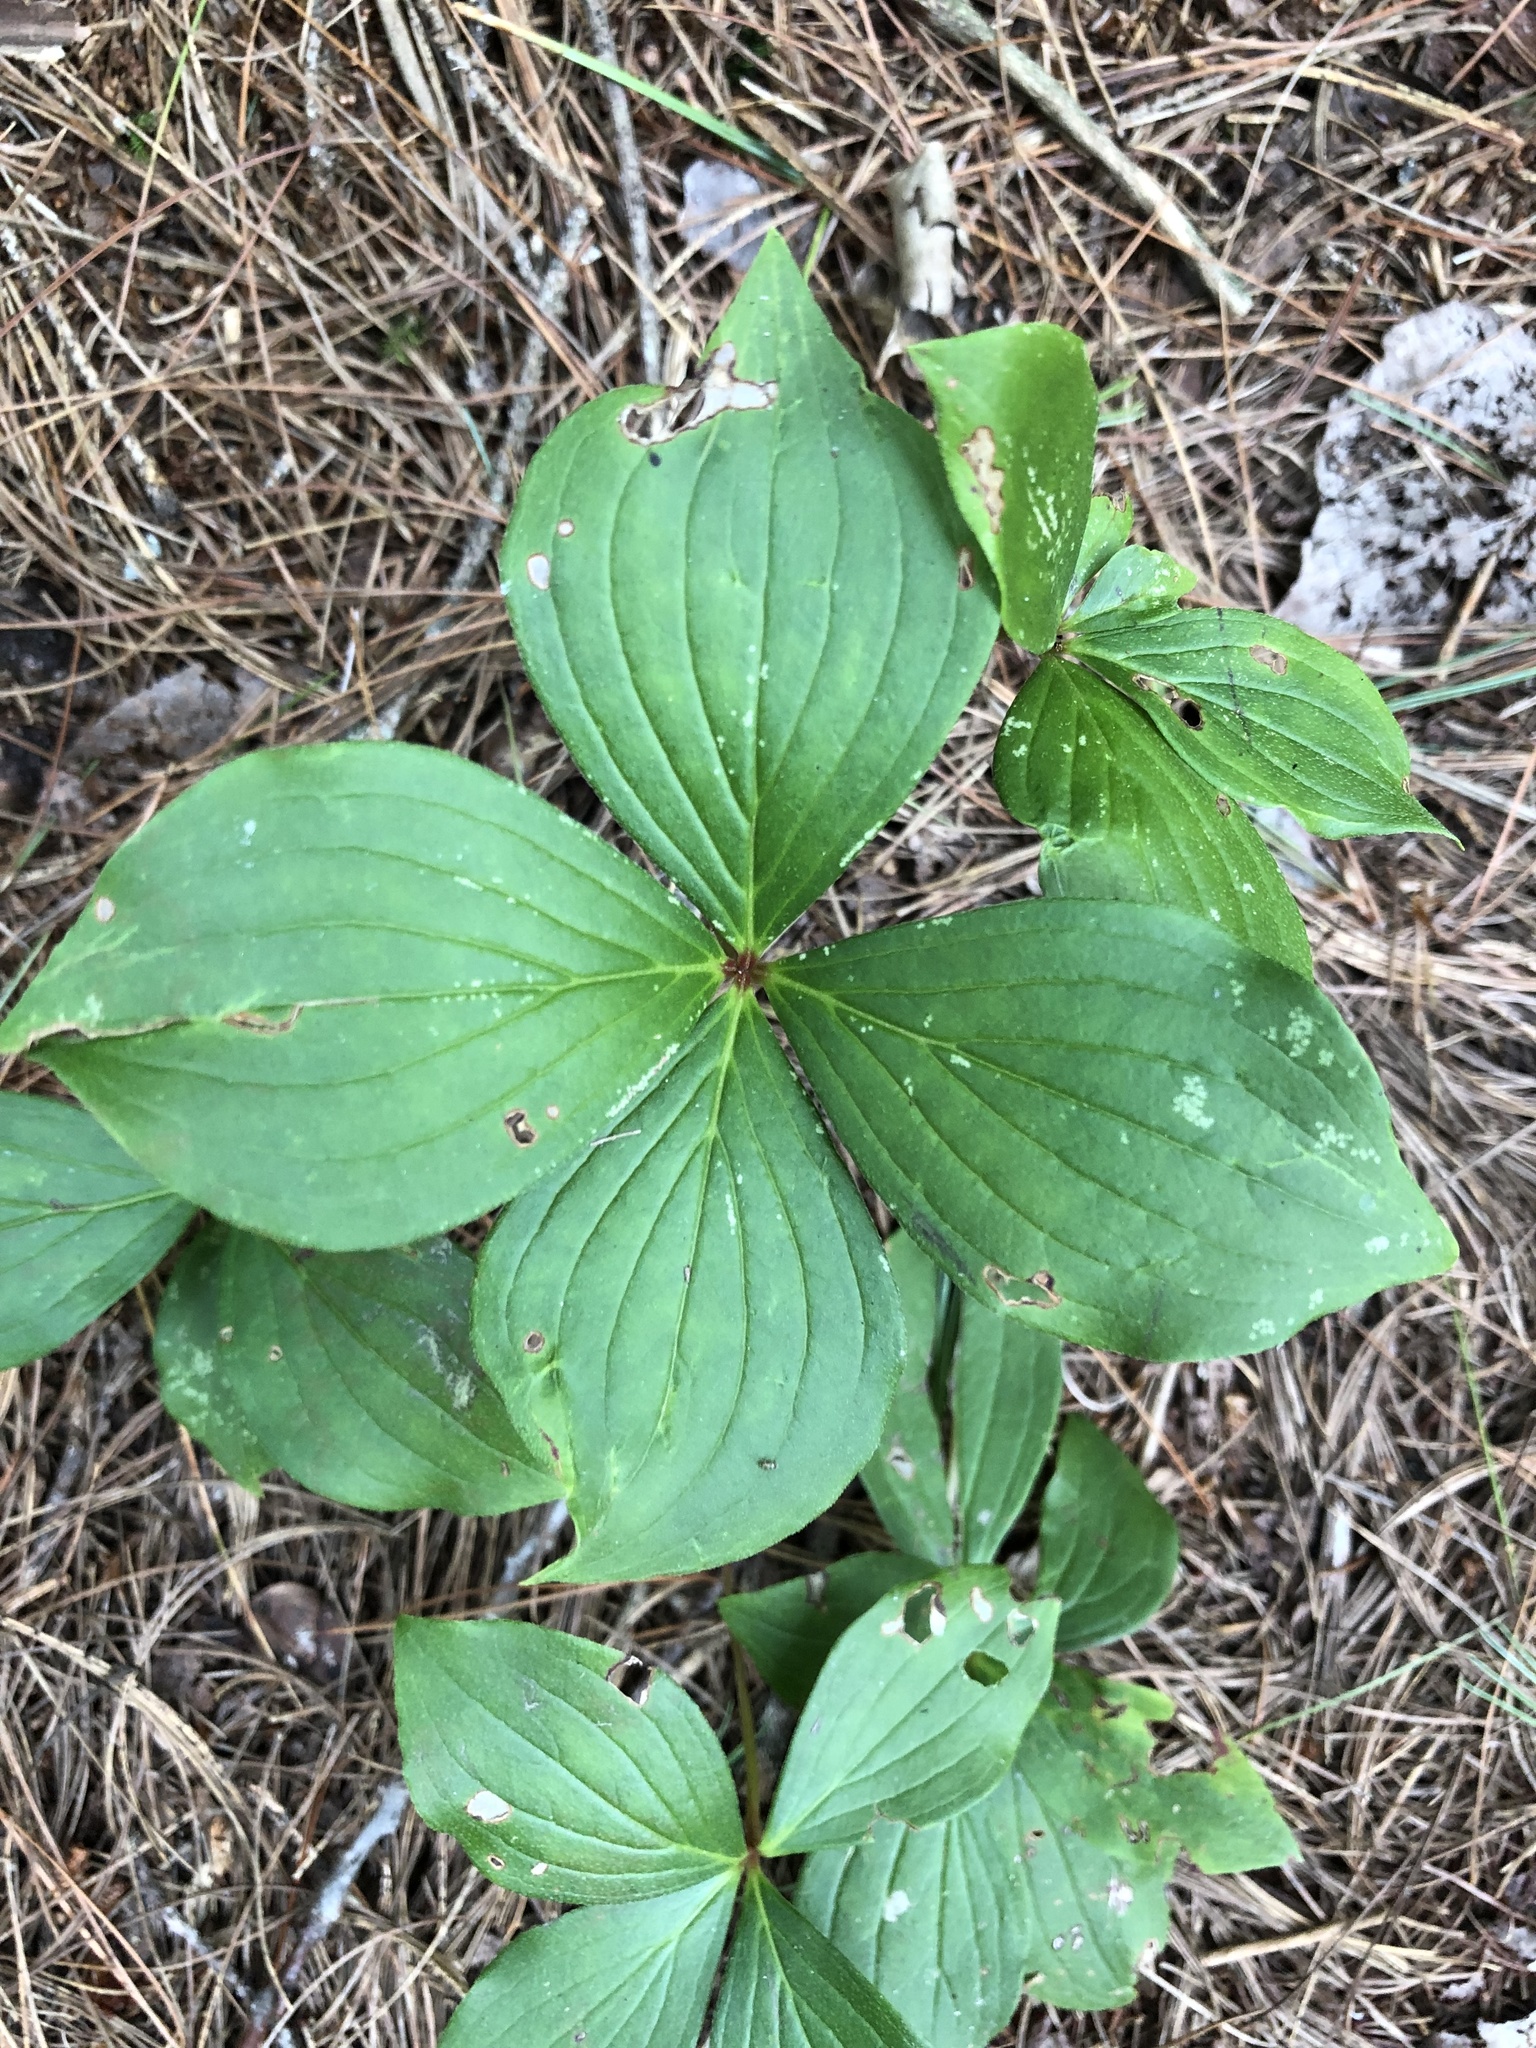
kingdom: Plantae
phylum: Tracheophyta
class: Magnoliopsida
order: Cornales
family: Cornaceae
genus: Cornus
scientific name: Cornus canadensis
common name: Creeping dogwood
